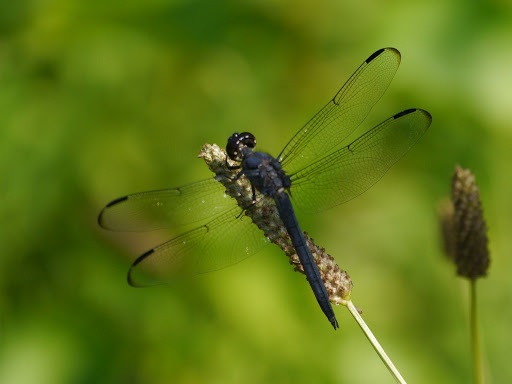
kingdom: Animalia
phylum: Arthropoda
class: Insecta
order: Odonata
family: Libellulidae
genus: Libellula
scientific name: Libellula incesta
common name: Slaty skimmer
